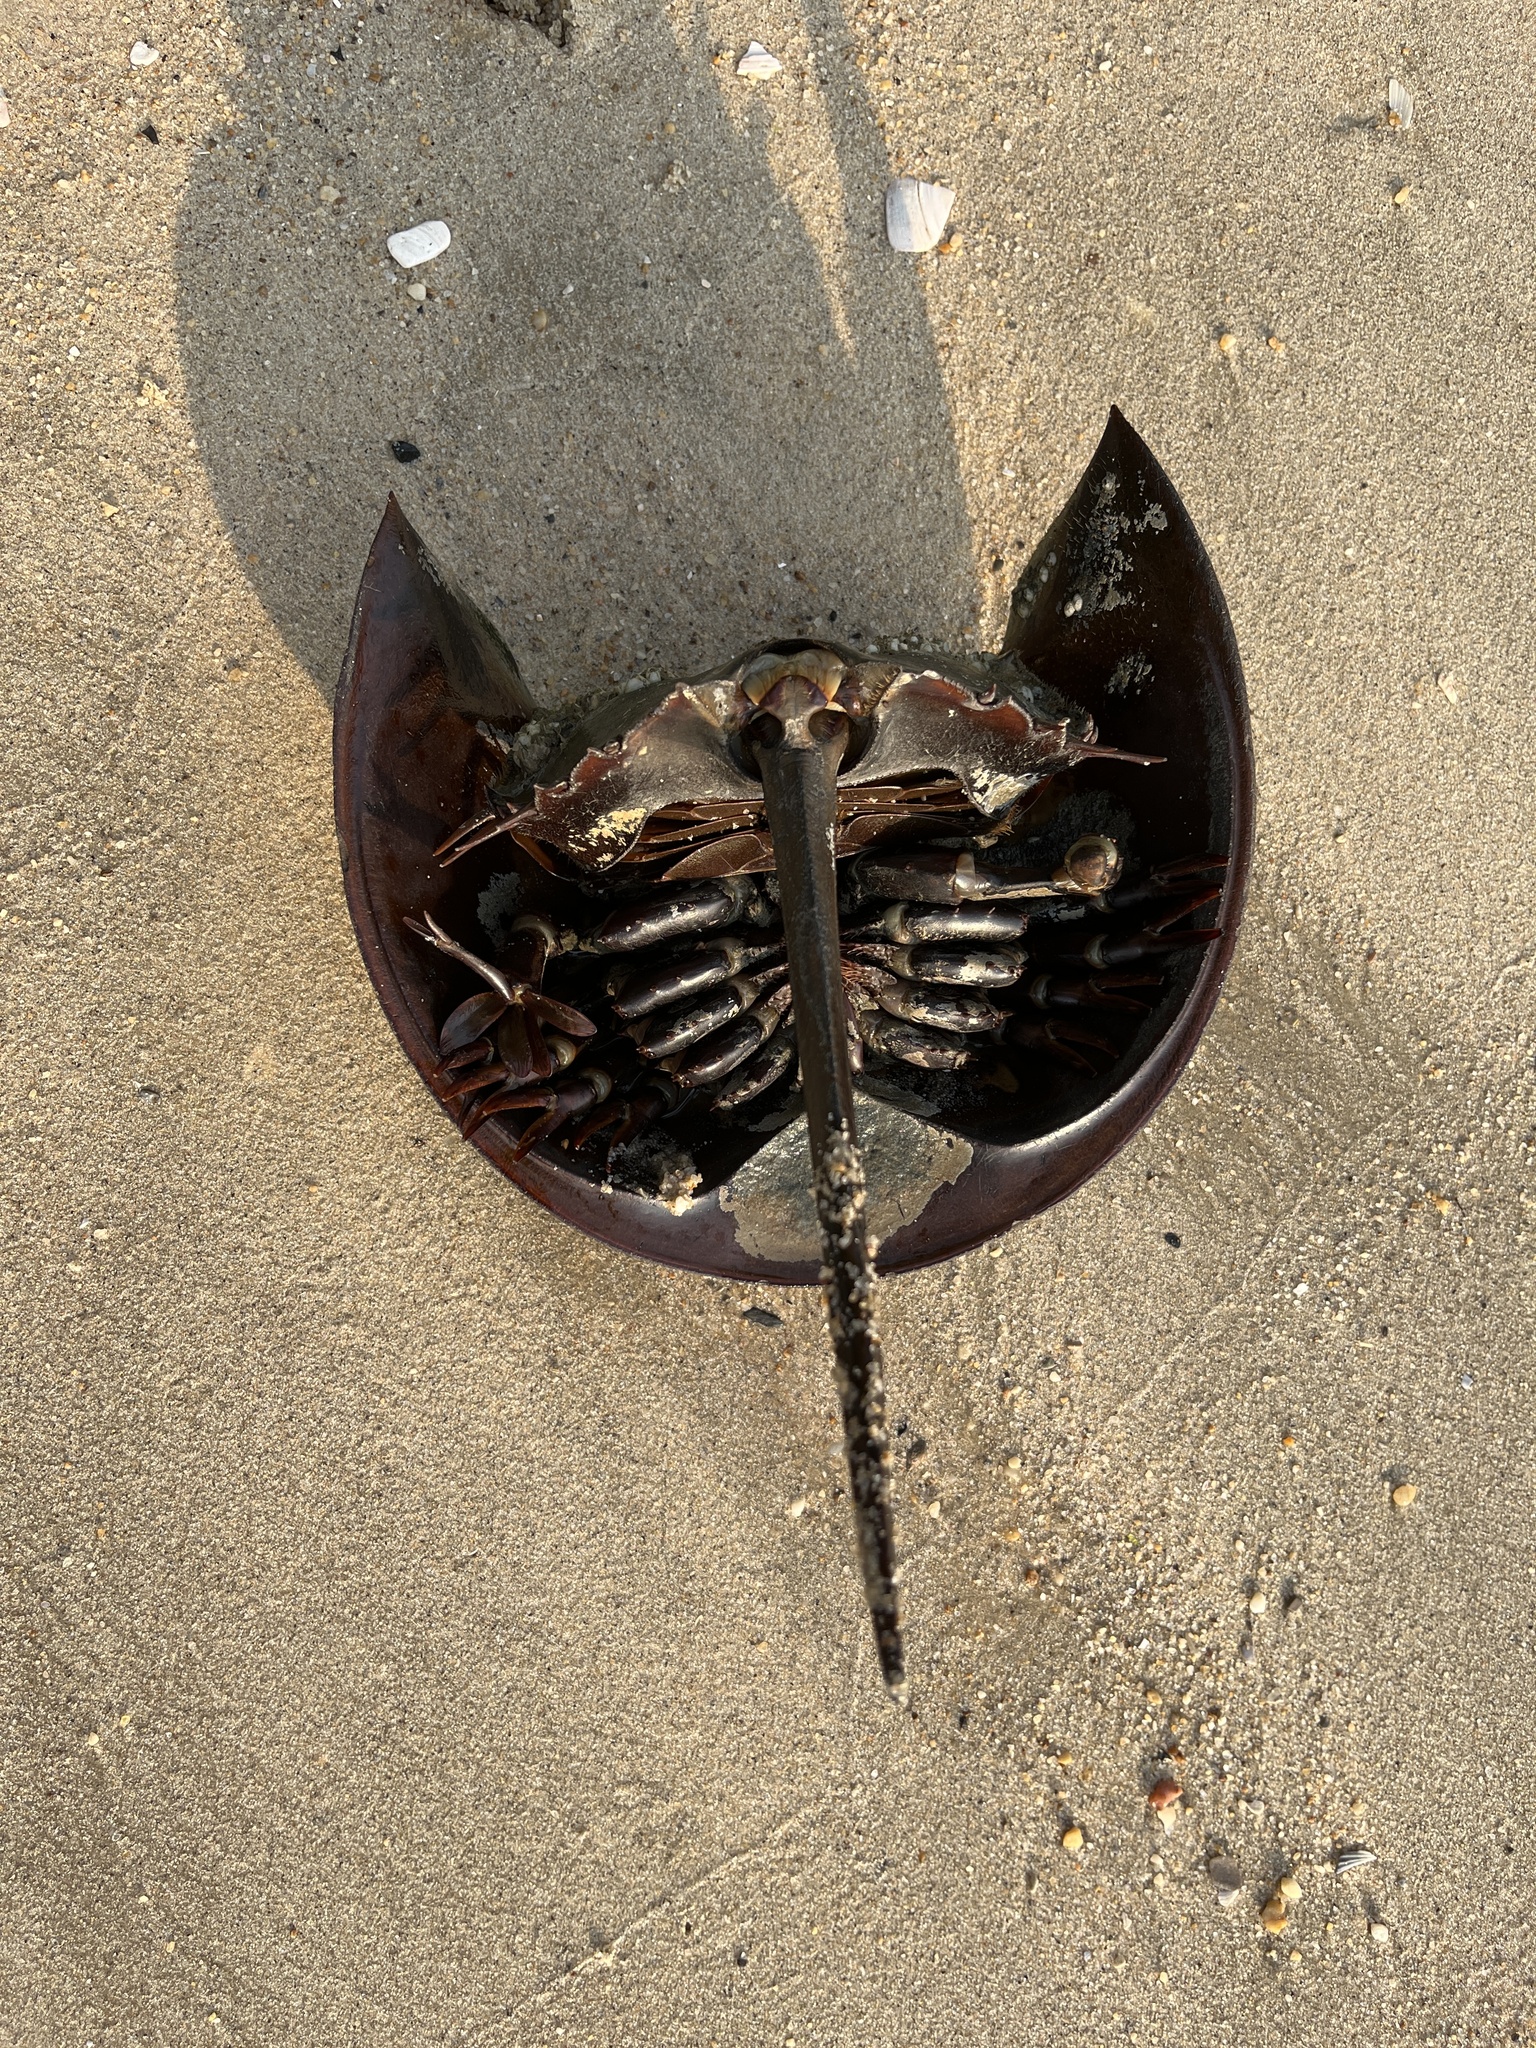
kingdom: Animalia
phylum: Arthropoda
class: Merostomata
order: Xiphosurida
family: Limulidae
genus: Limulus
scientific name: Limulus polyphemus
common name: Horseshoe crab
